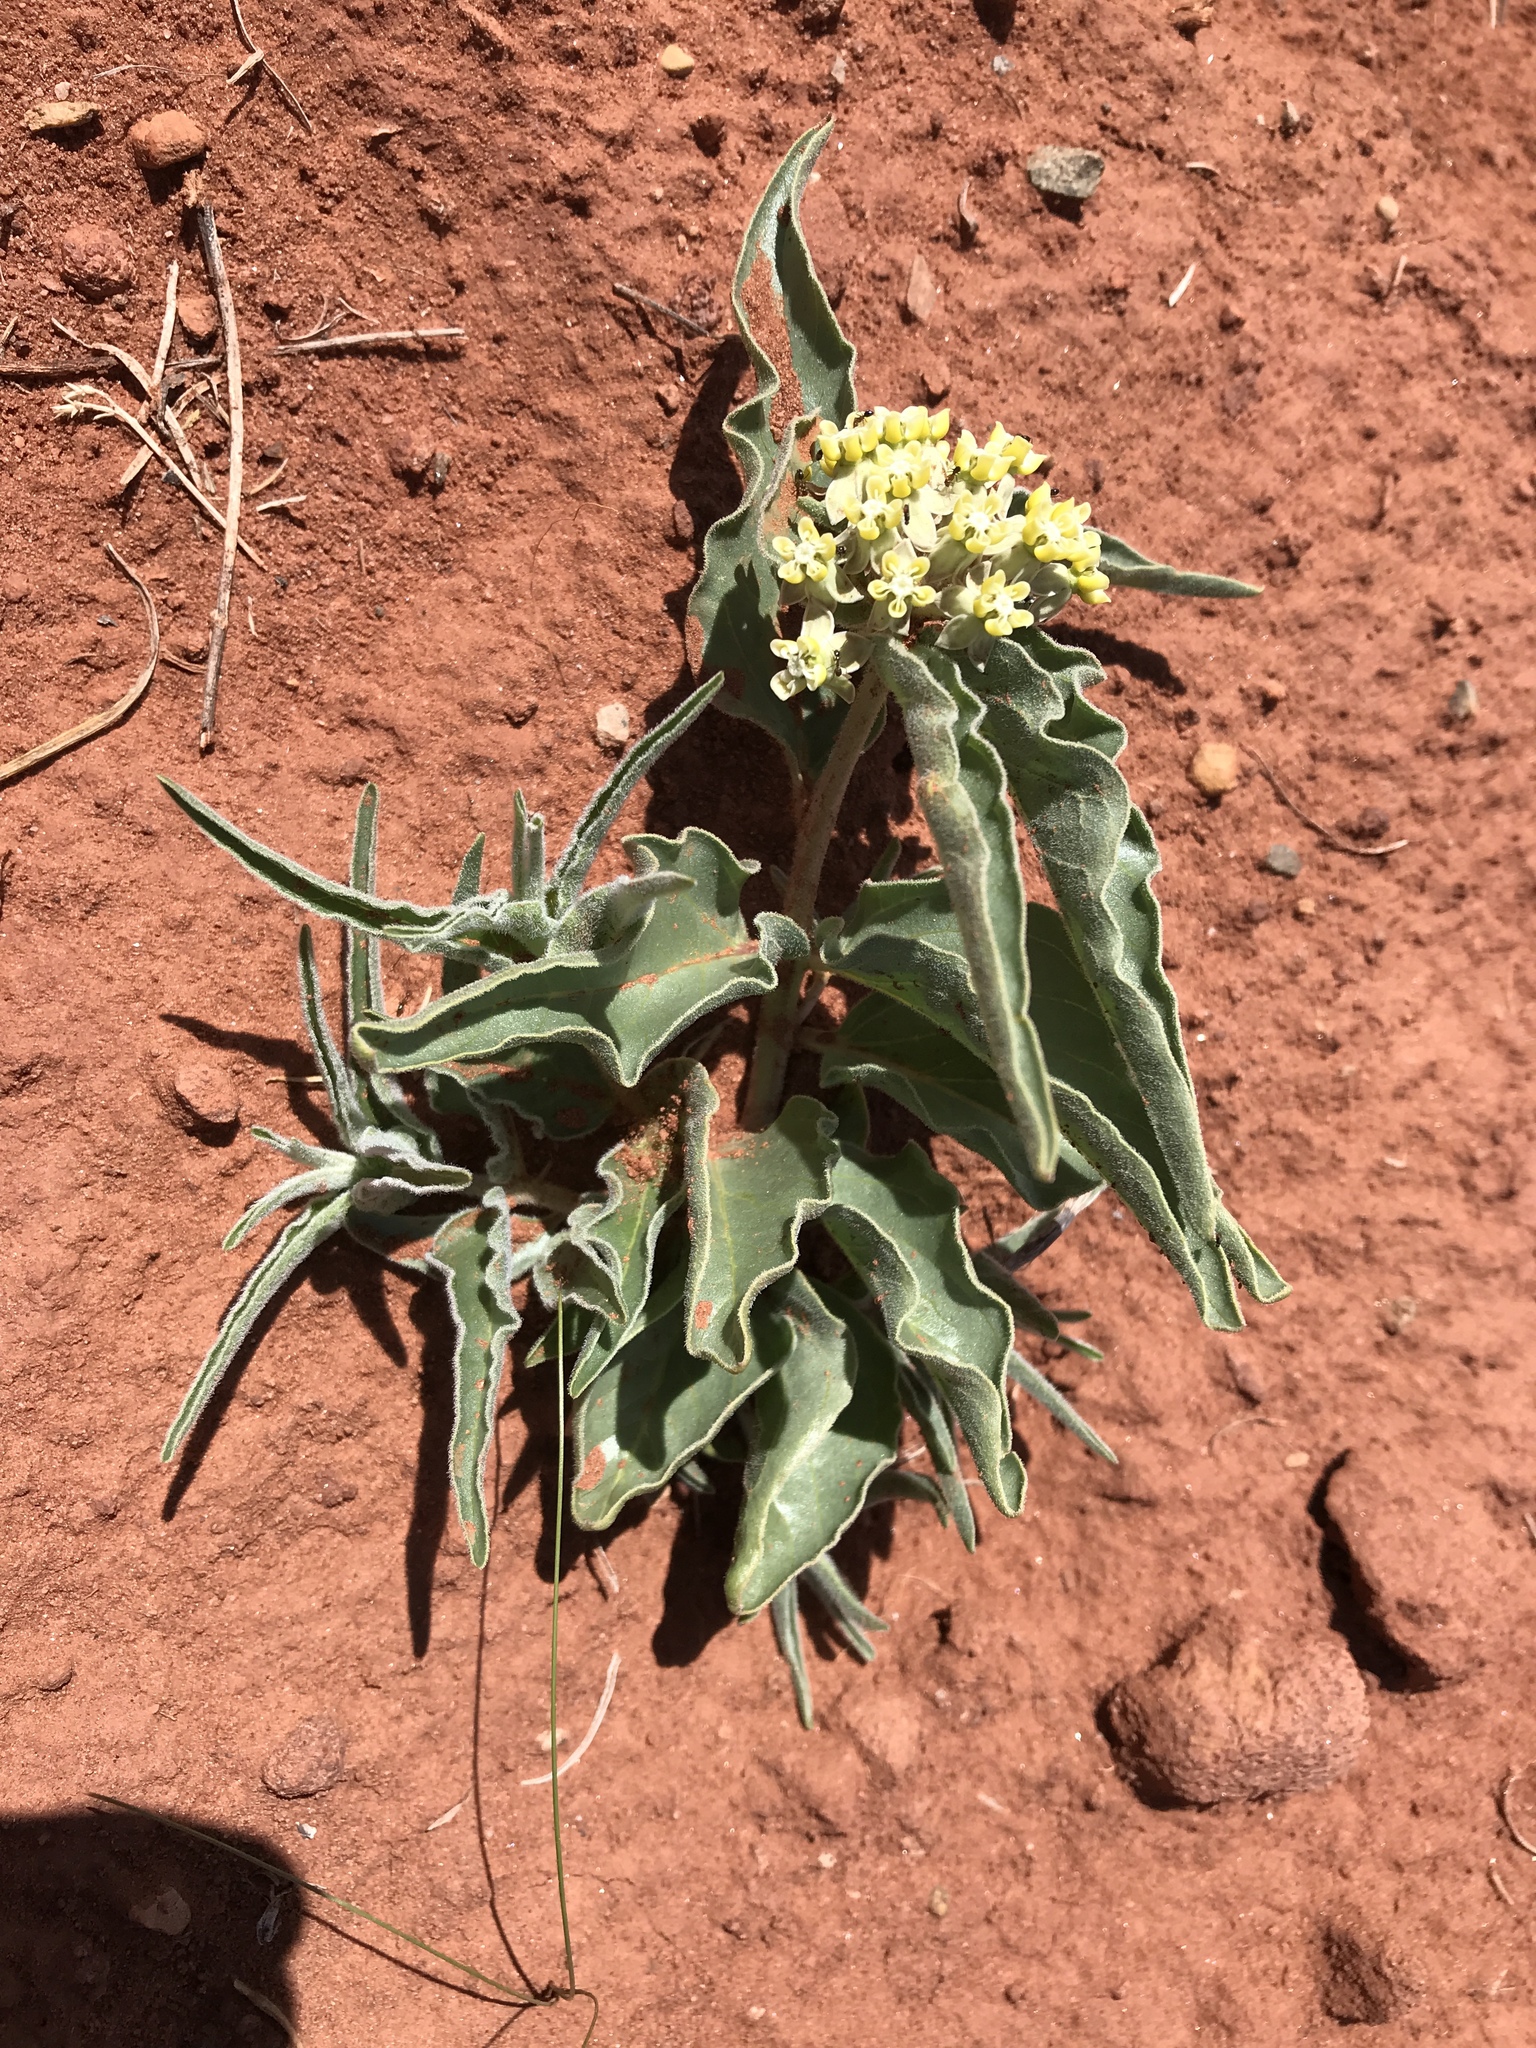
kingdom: Plantae
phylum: Tracheophyta
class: Magnoliopsida
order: Gentianales
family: Apocynaceae
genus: Asclepias
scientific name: Asclepias involucrata
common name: Dwarf milkweed
